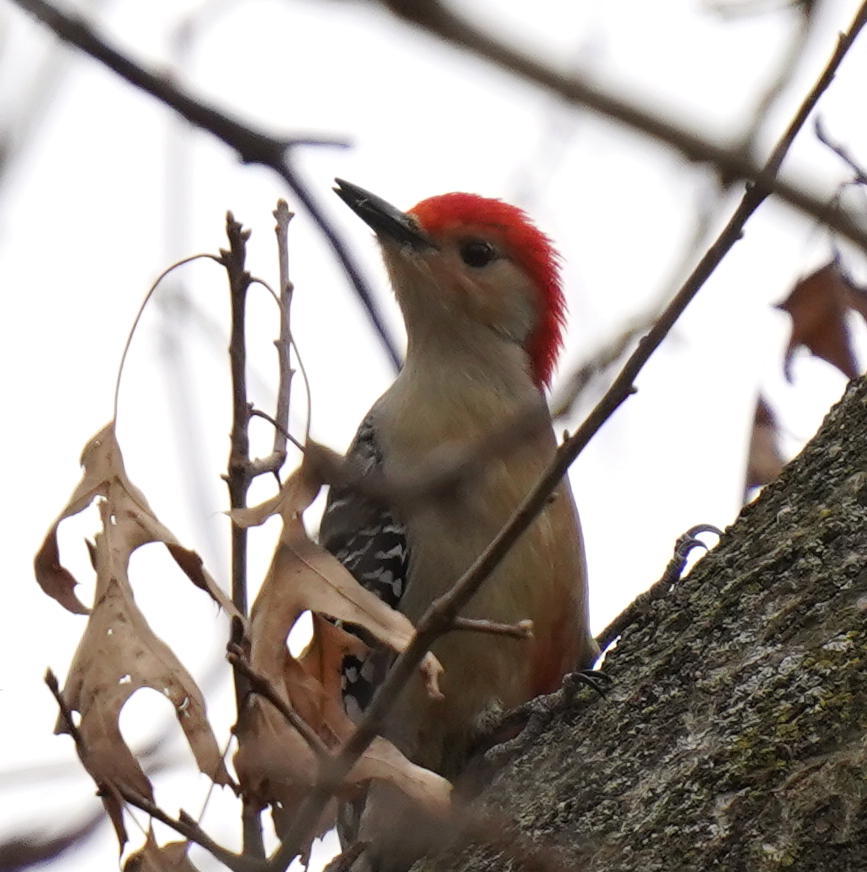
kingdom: Animalia
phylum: Chordata
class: Aves
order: Piciformes
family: Picidae
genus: Melanerpes
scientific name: Melanerpes carolinus
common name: Red-bellied woodpecker
